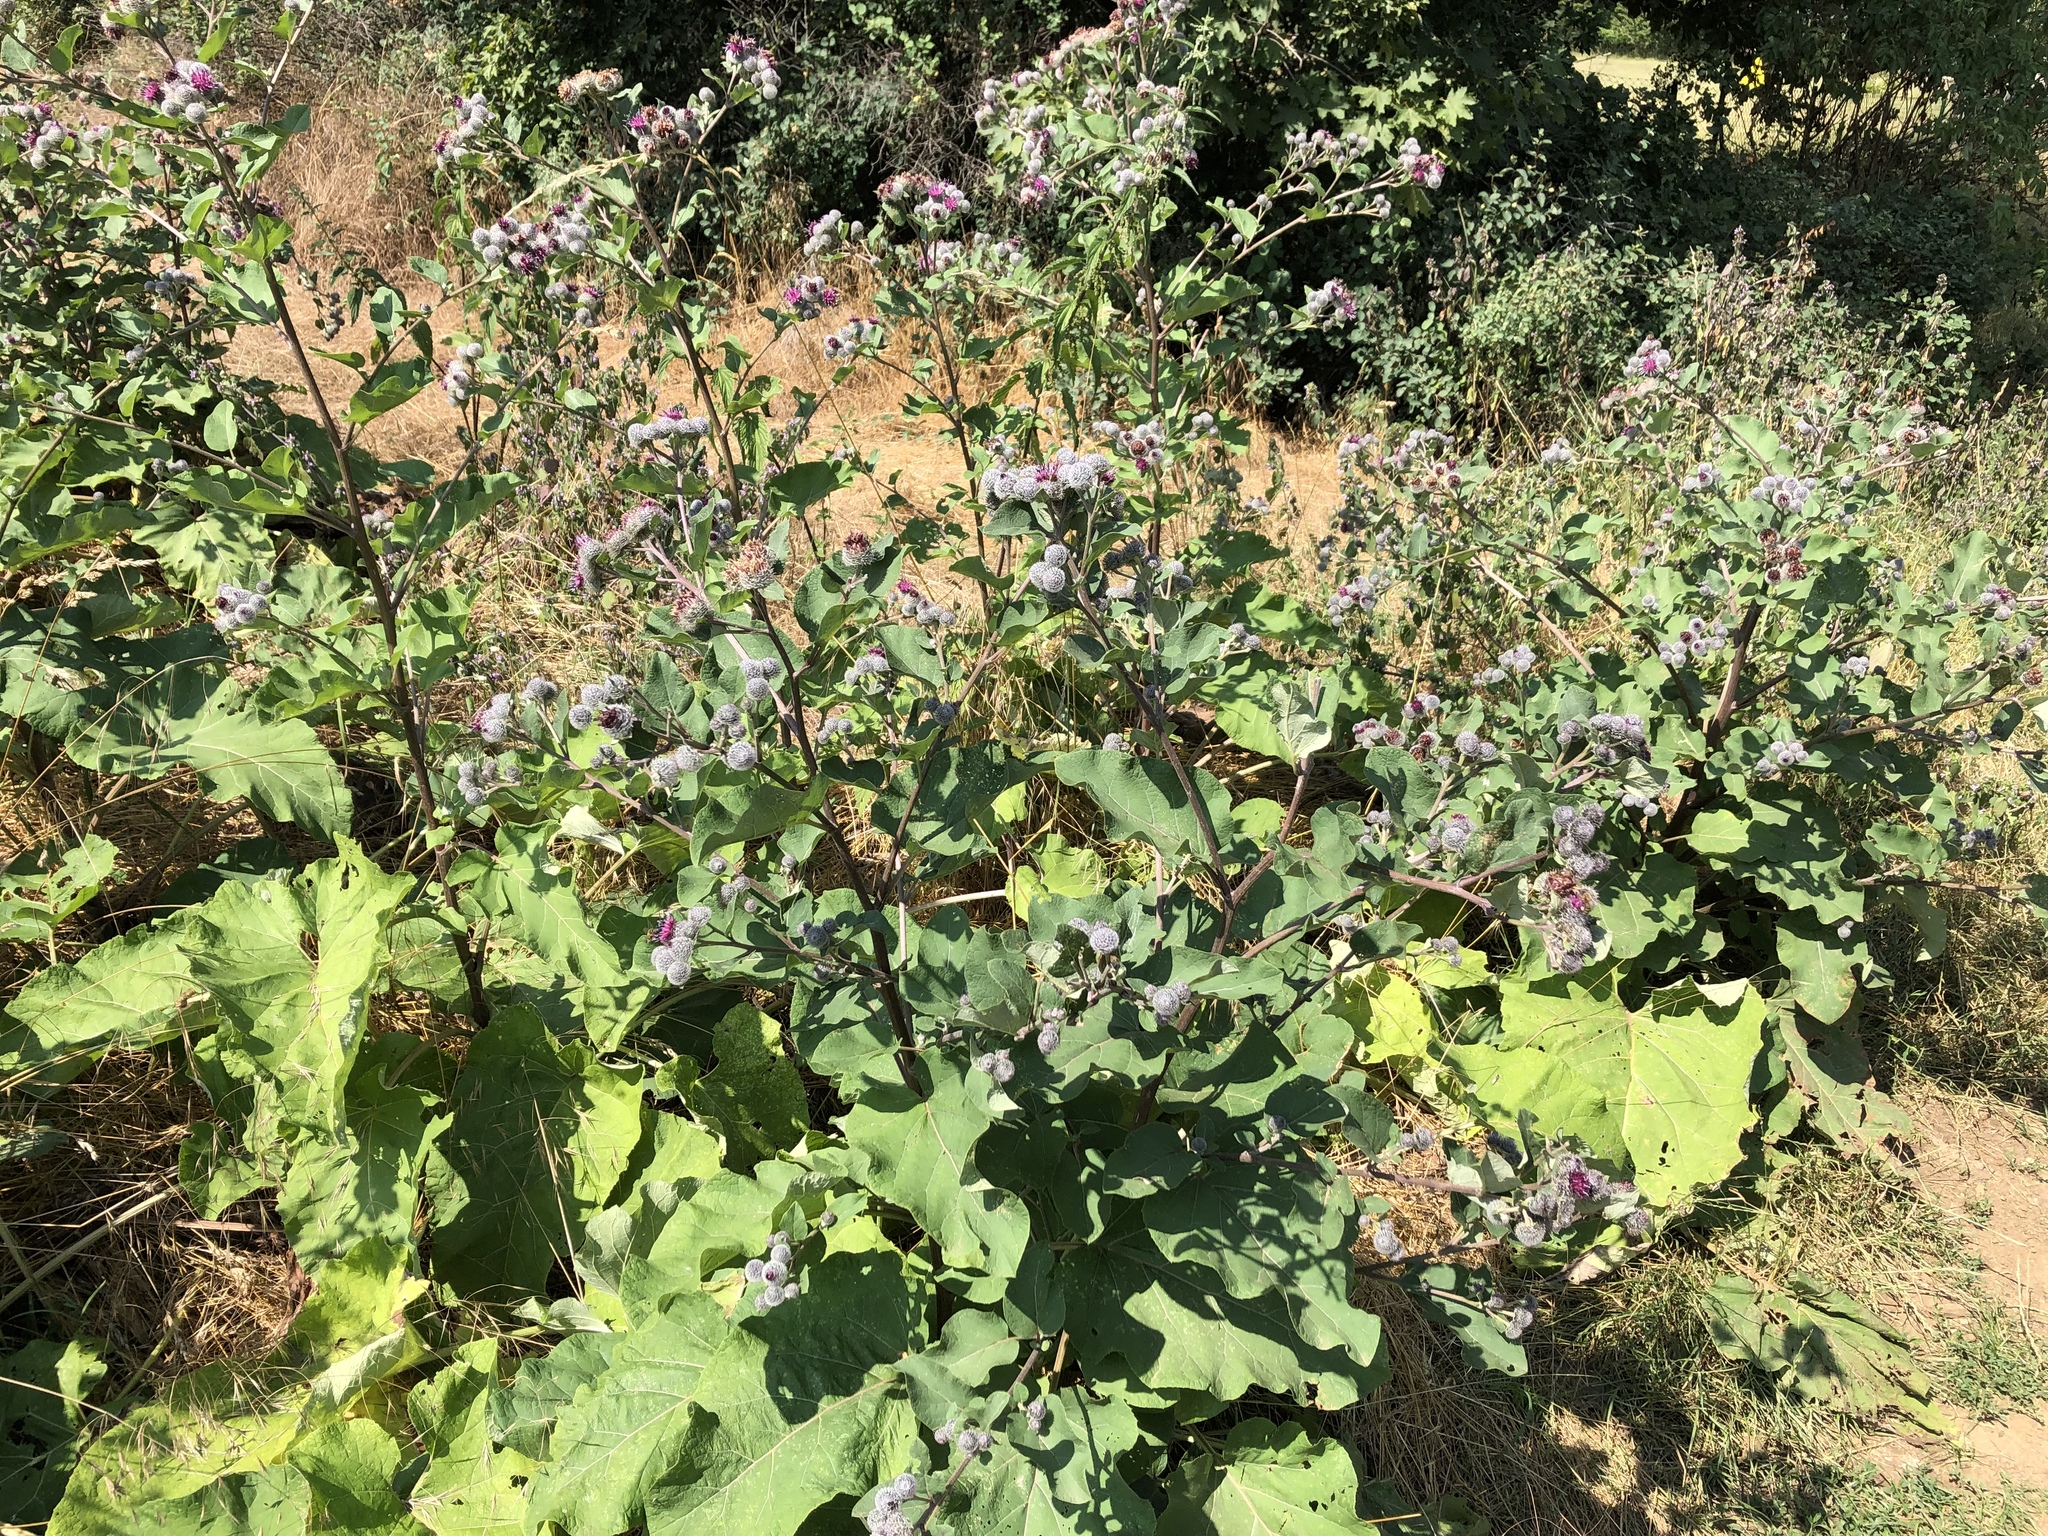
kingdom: Plantae
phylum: Tracheophyta
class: Magnoliopsida
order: Asterales
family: Asteraceae
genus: Arctium
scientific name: Arctium tomentosum
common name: Woolly burdock
